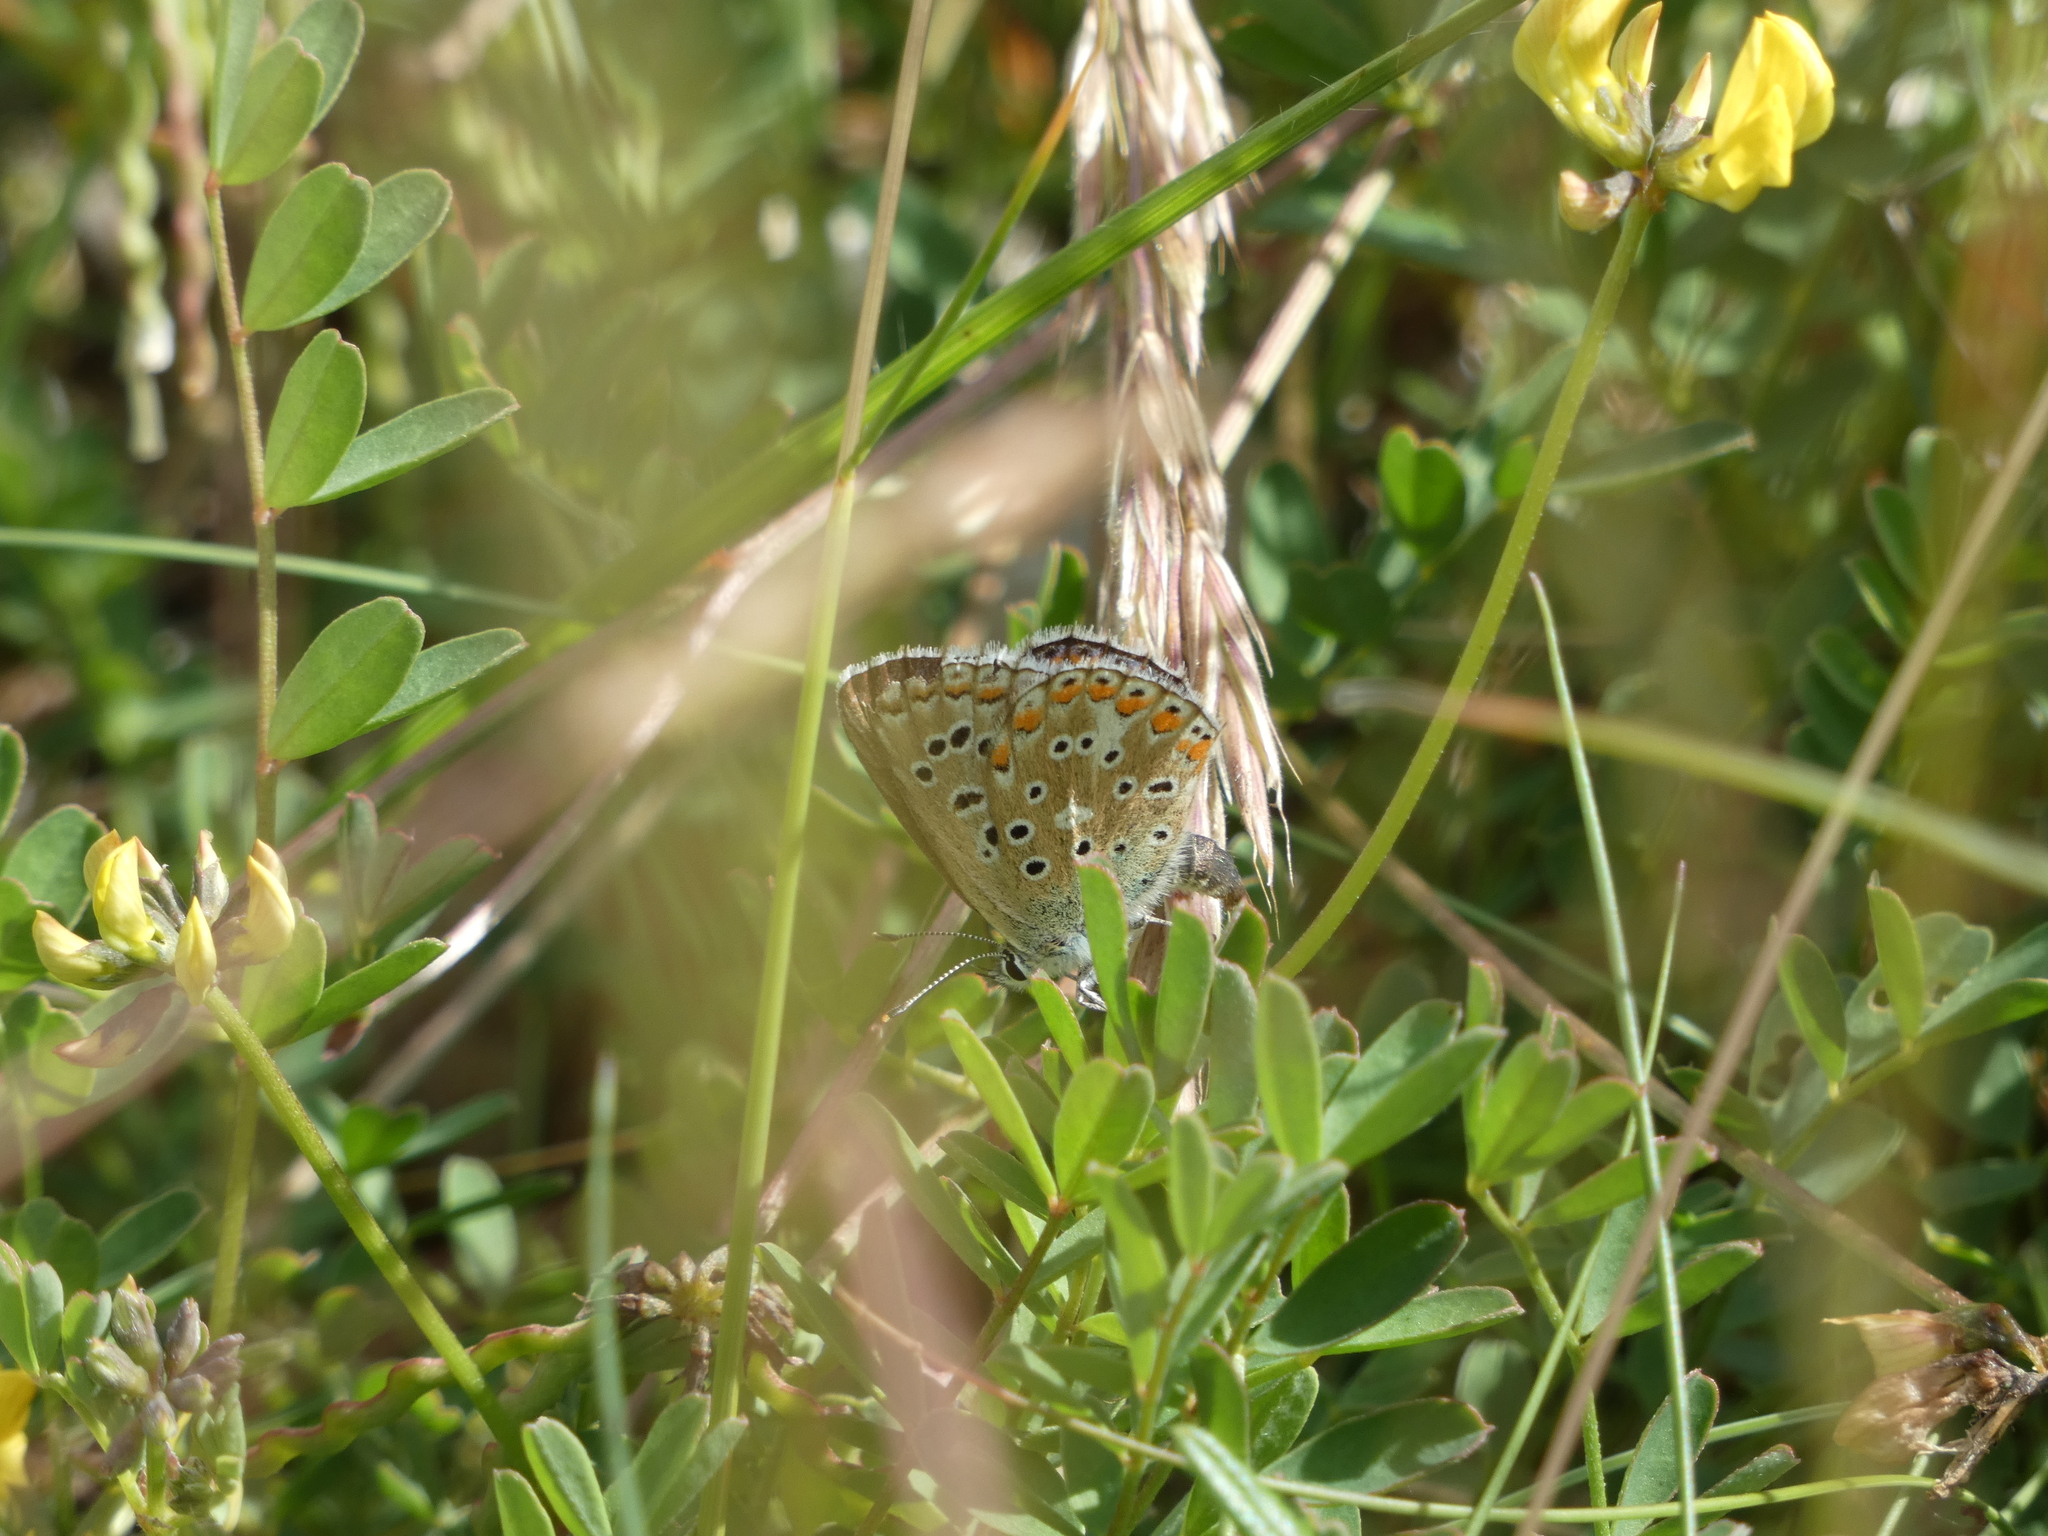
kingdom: Animalia
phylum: Arthropoda
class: Insecta
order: Lepidoptera
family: Lycaenidae
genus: Lysandra
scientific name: Lysandra bellargus
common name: Adonis blue
